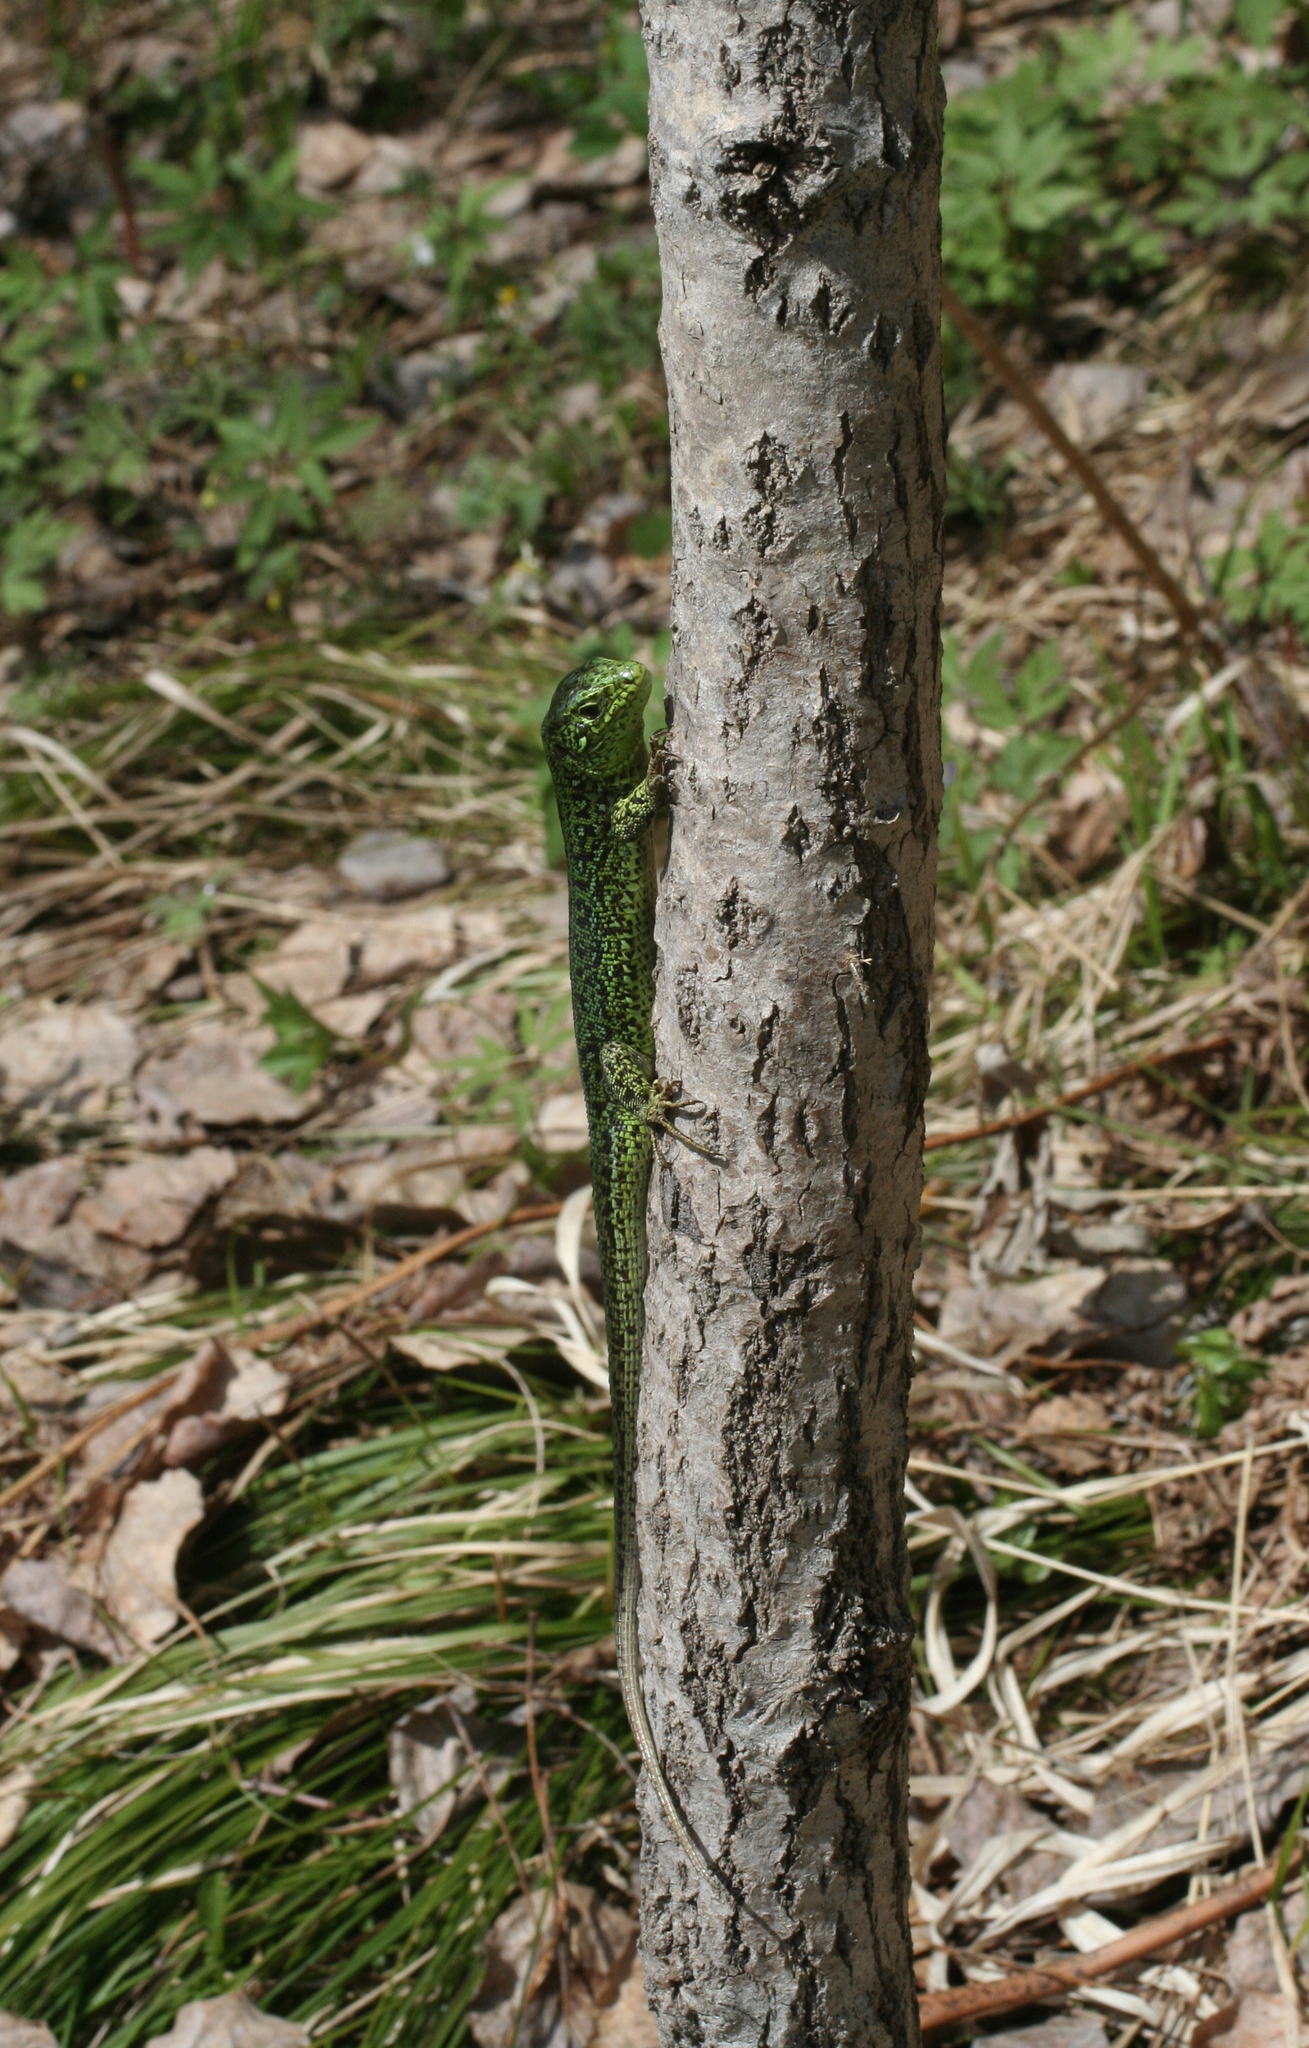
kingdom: Animalia
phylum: Chordata
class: Squamata
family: Lacertidae
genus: Lacerta
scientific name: Lacerta agilis
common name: Sand lizard
